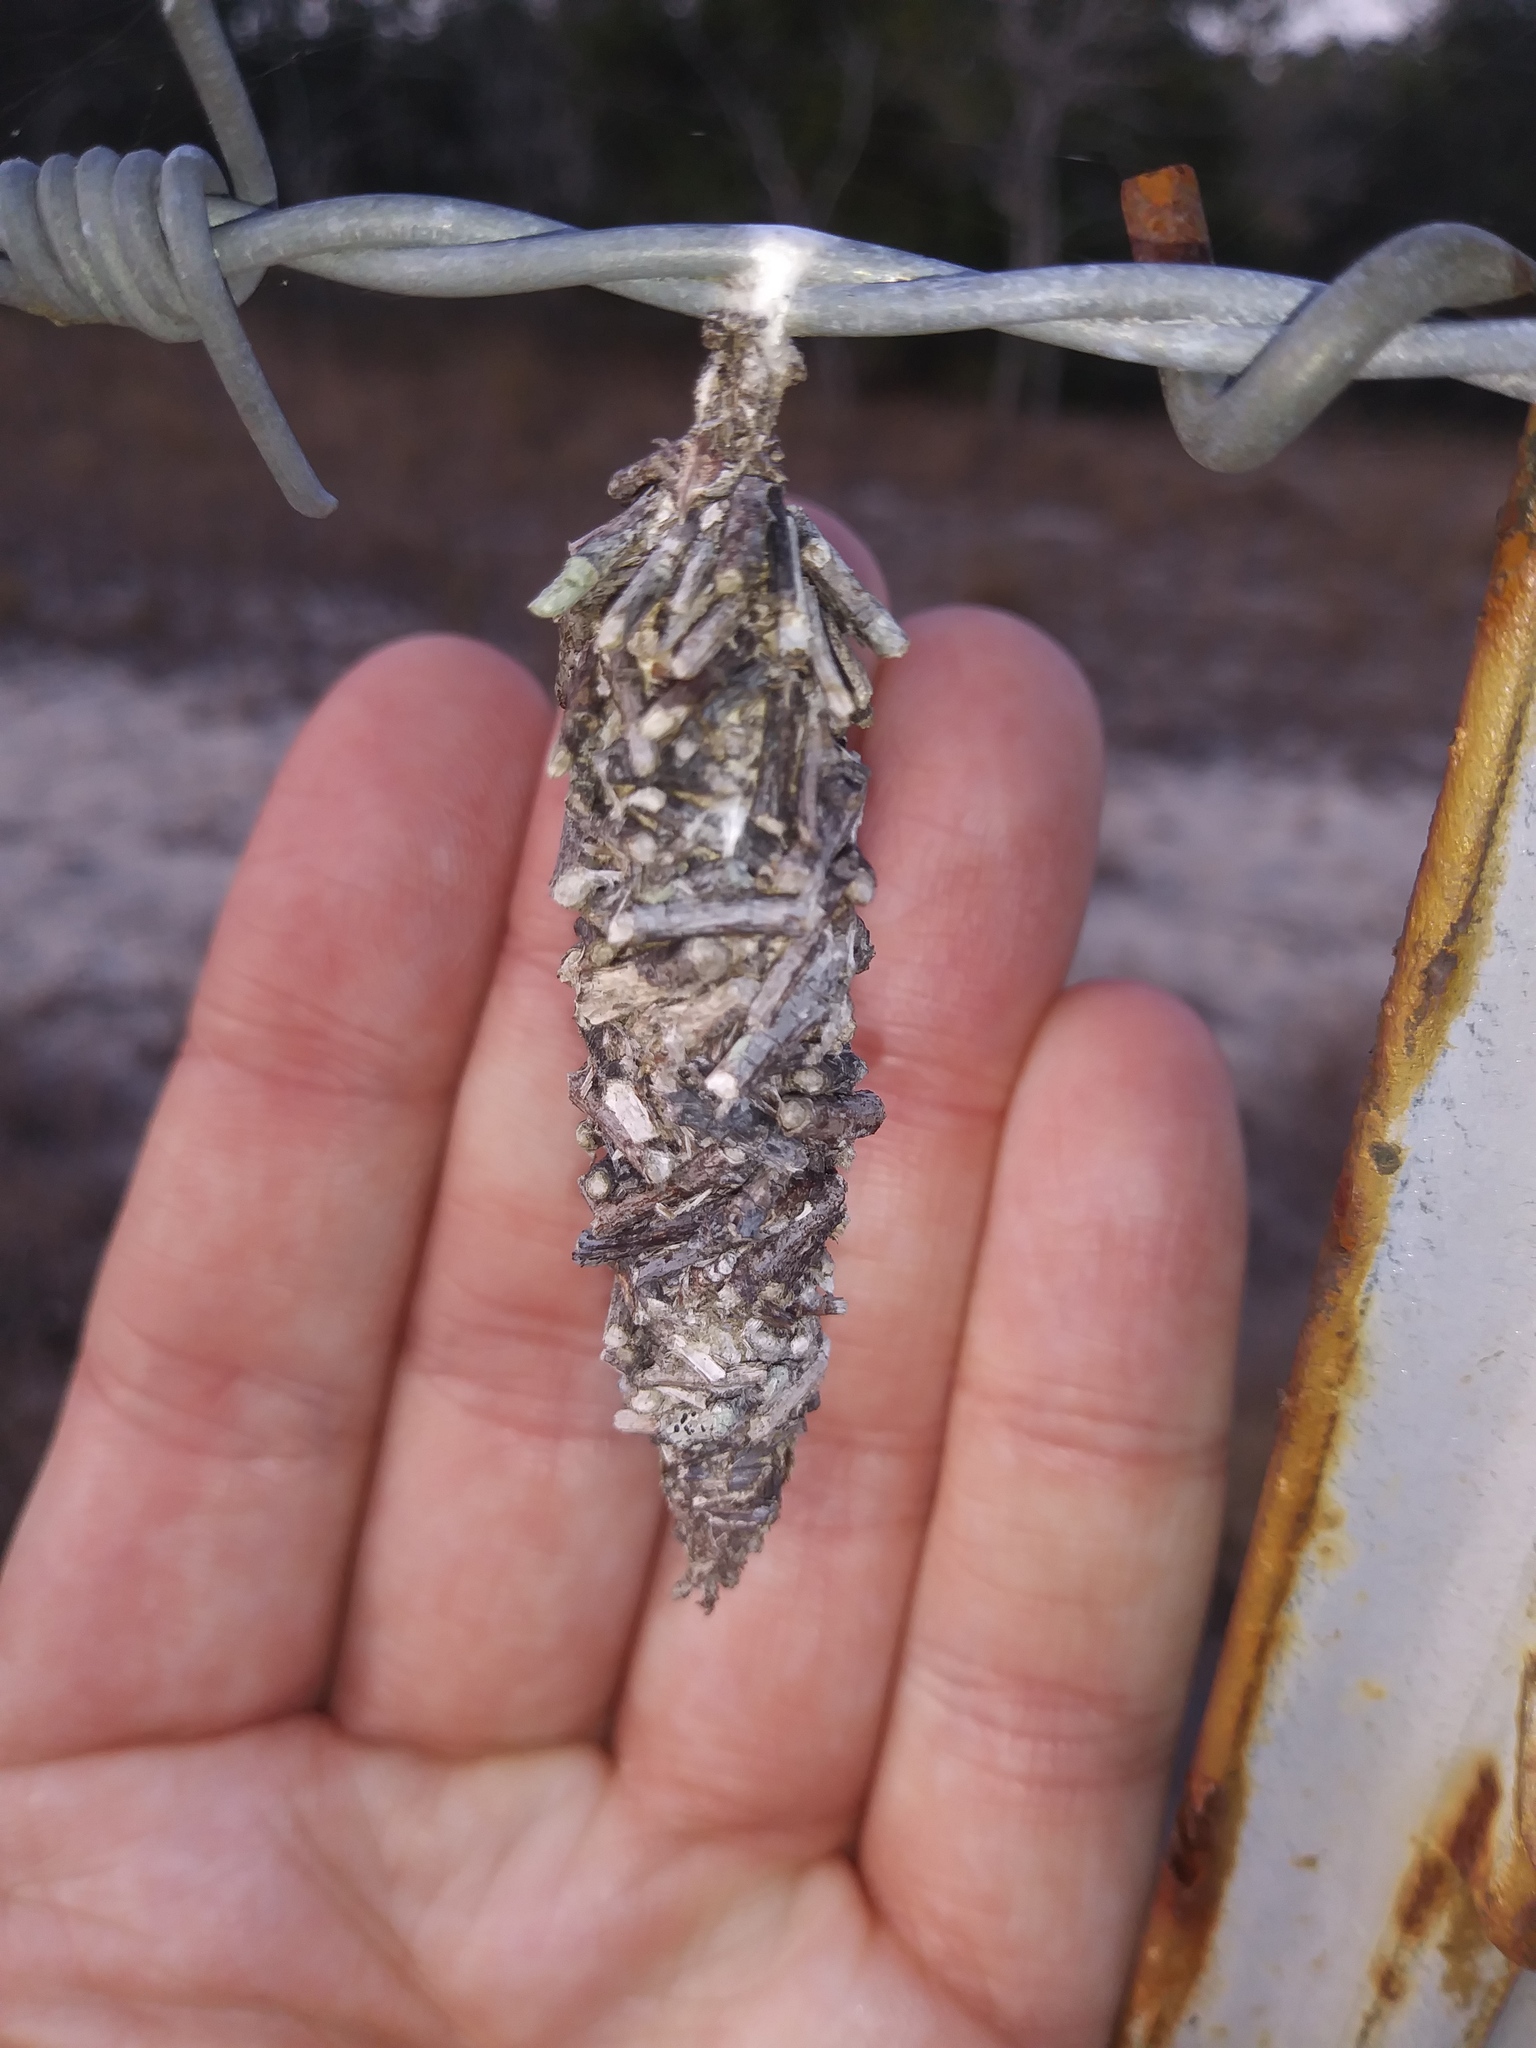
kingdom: Animalia
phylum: Arthropoda
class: Insecta
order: Lepidoptera
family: Psychidae
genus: Oiketicus
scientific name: Oiketicus
